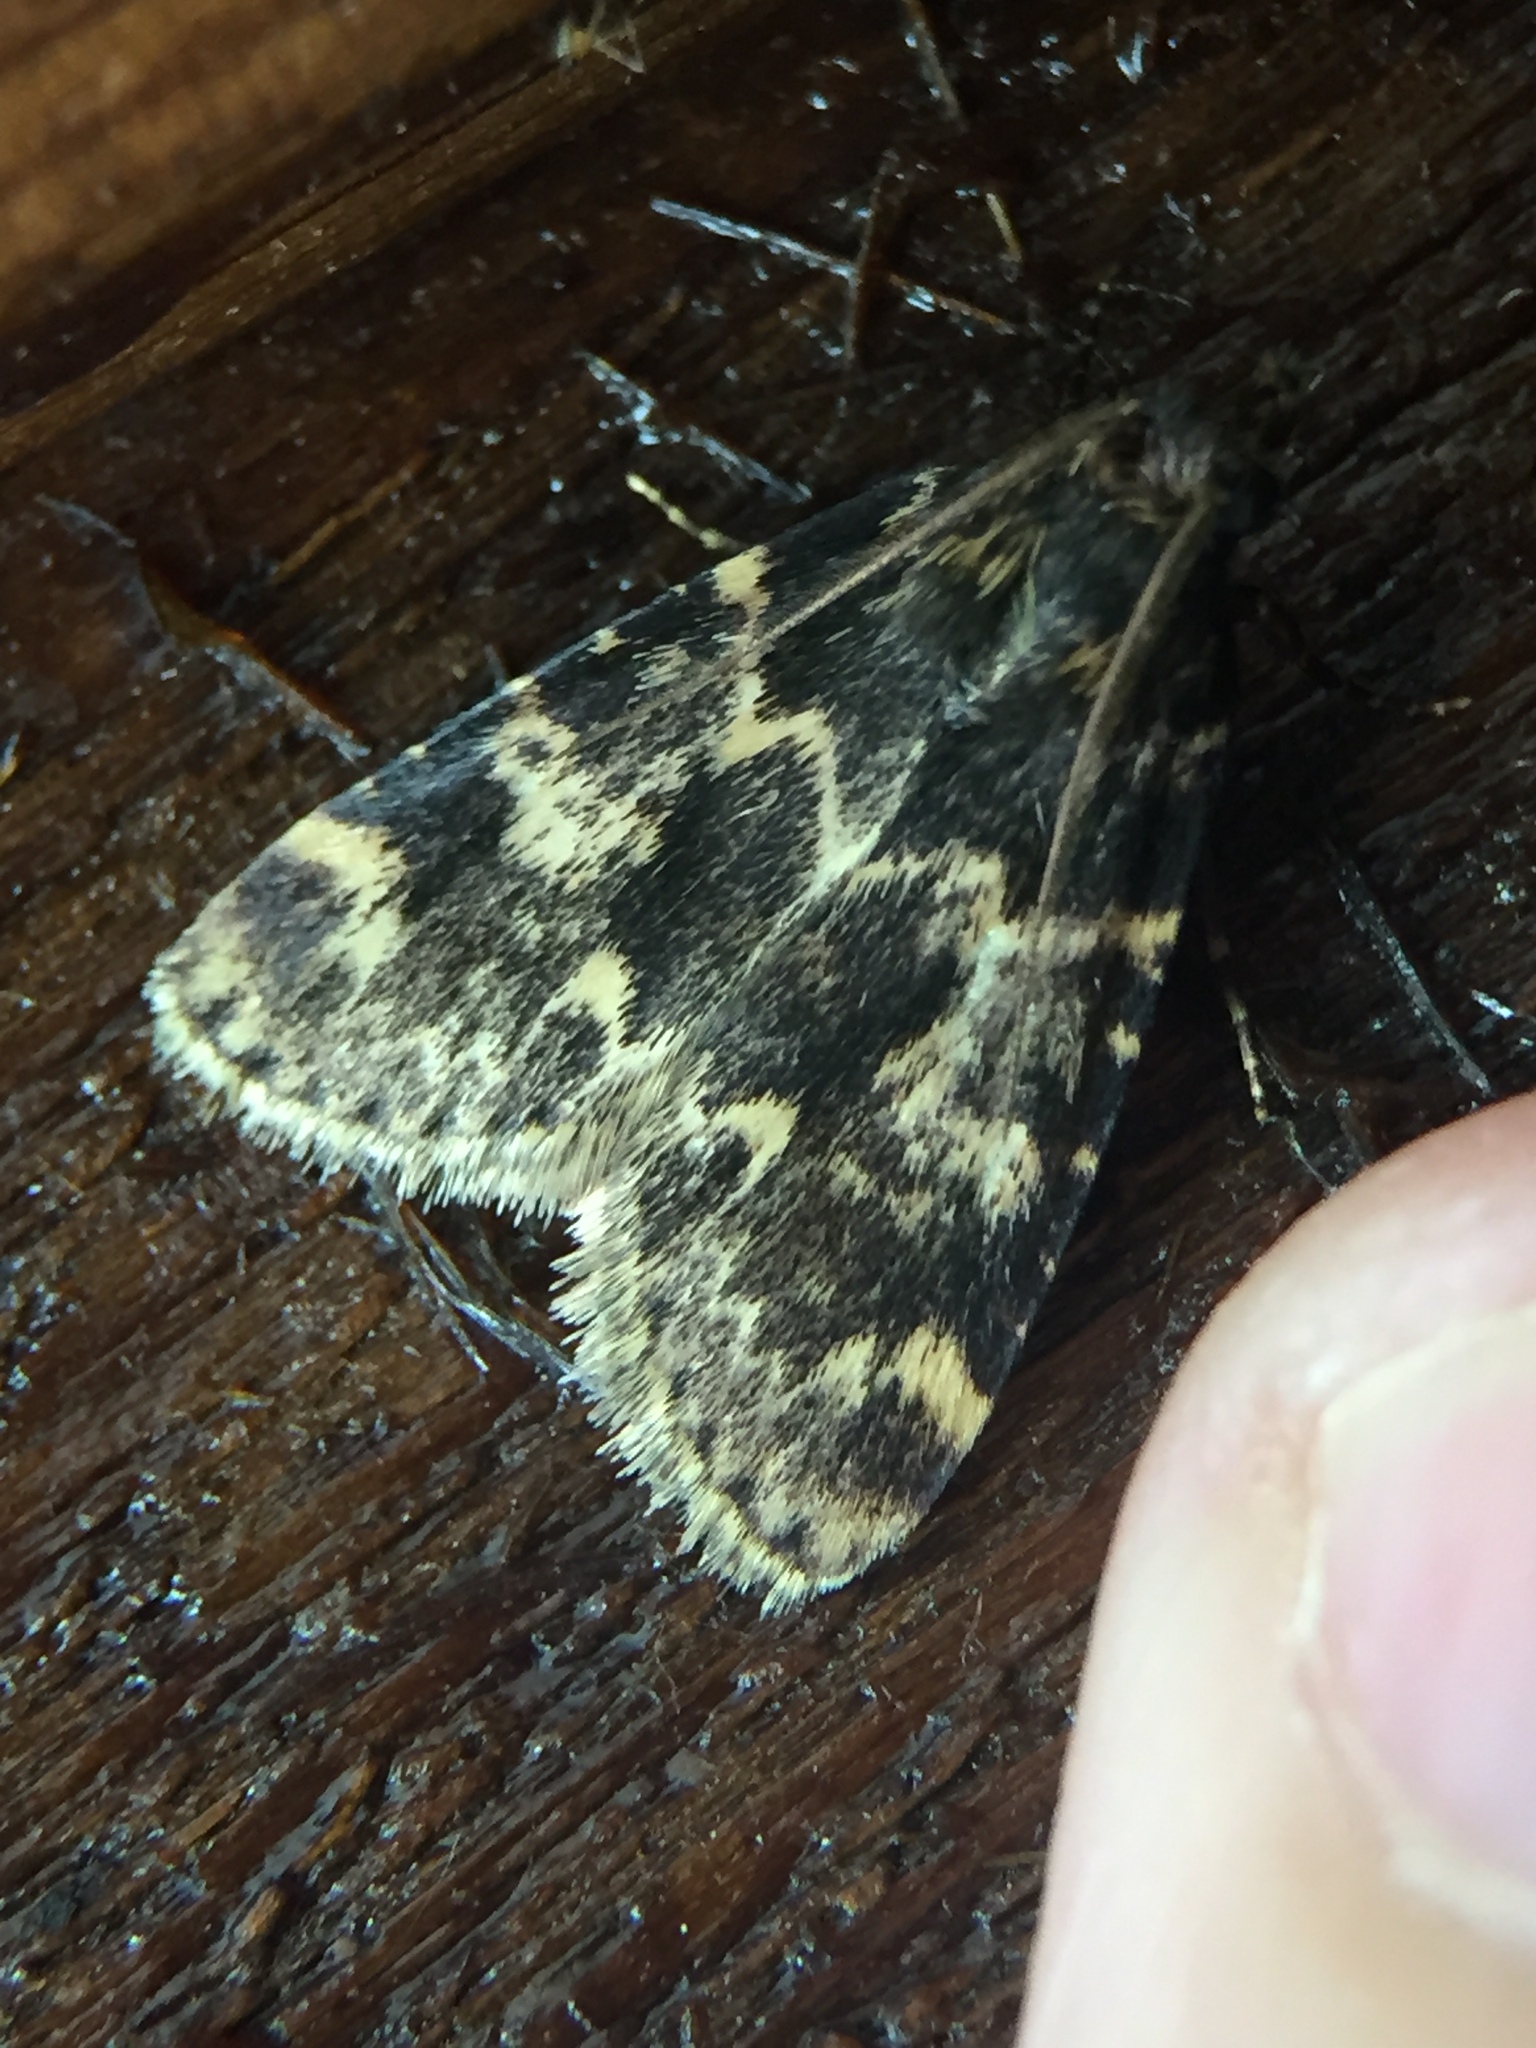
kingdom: Animalia
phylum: Arthropoda
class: Insecta
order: Lepidoptera
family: Pyralidae
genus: Aglossa
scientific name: Aglossa caprealis
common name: Small tabby
